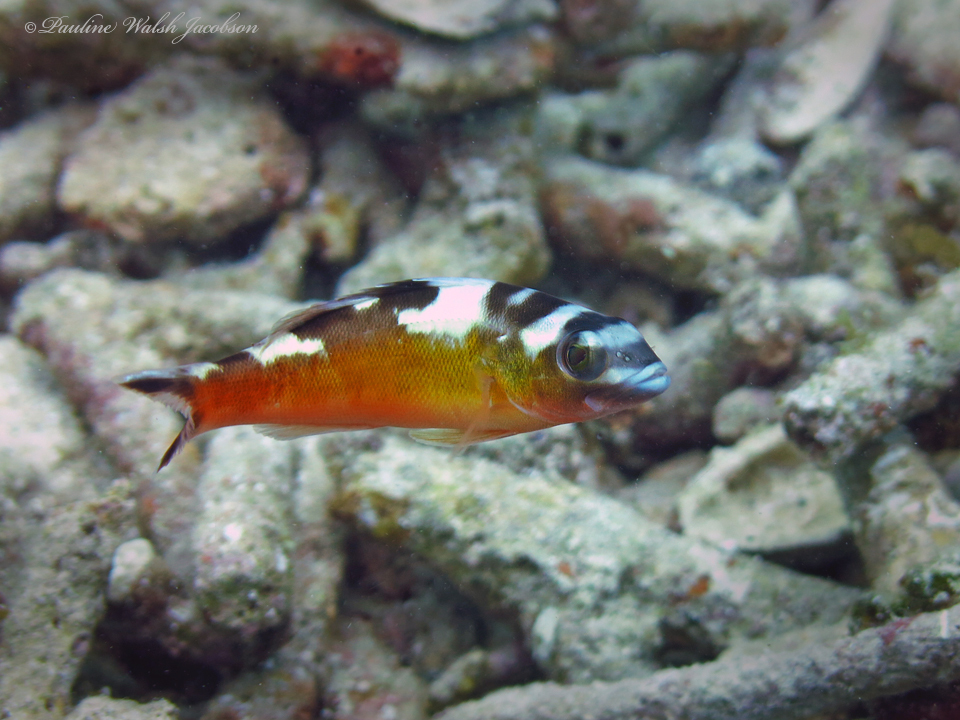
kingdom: Animalia
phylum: Chordata
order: Perciformes
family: Serranidae
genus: Serranus
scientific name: Serranus tabacarius
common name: Tobaccofish
